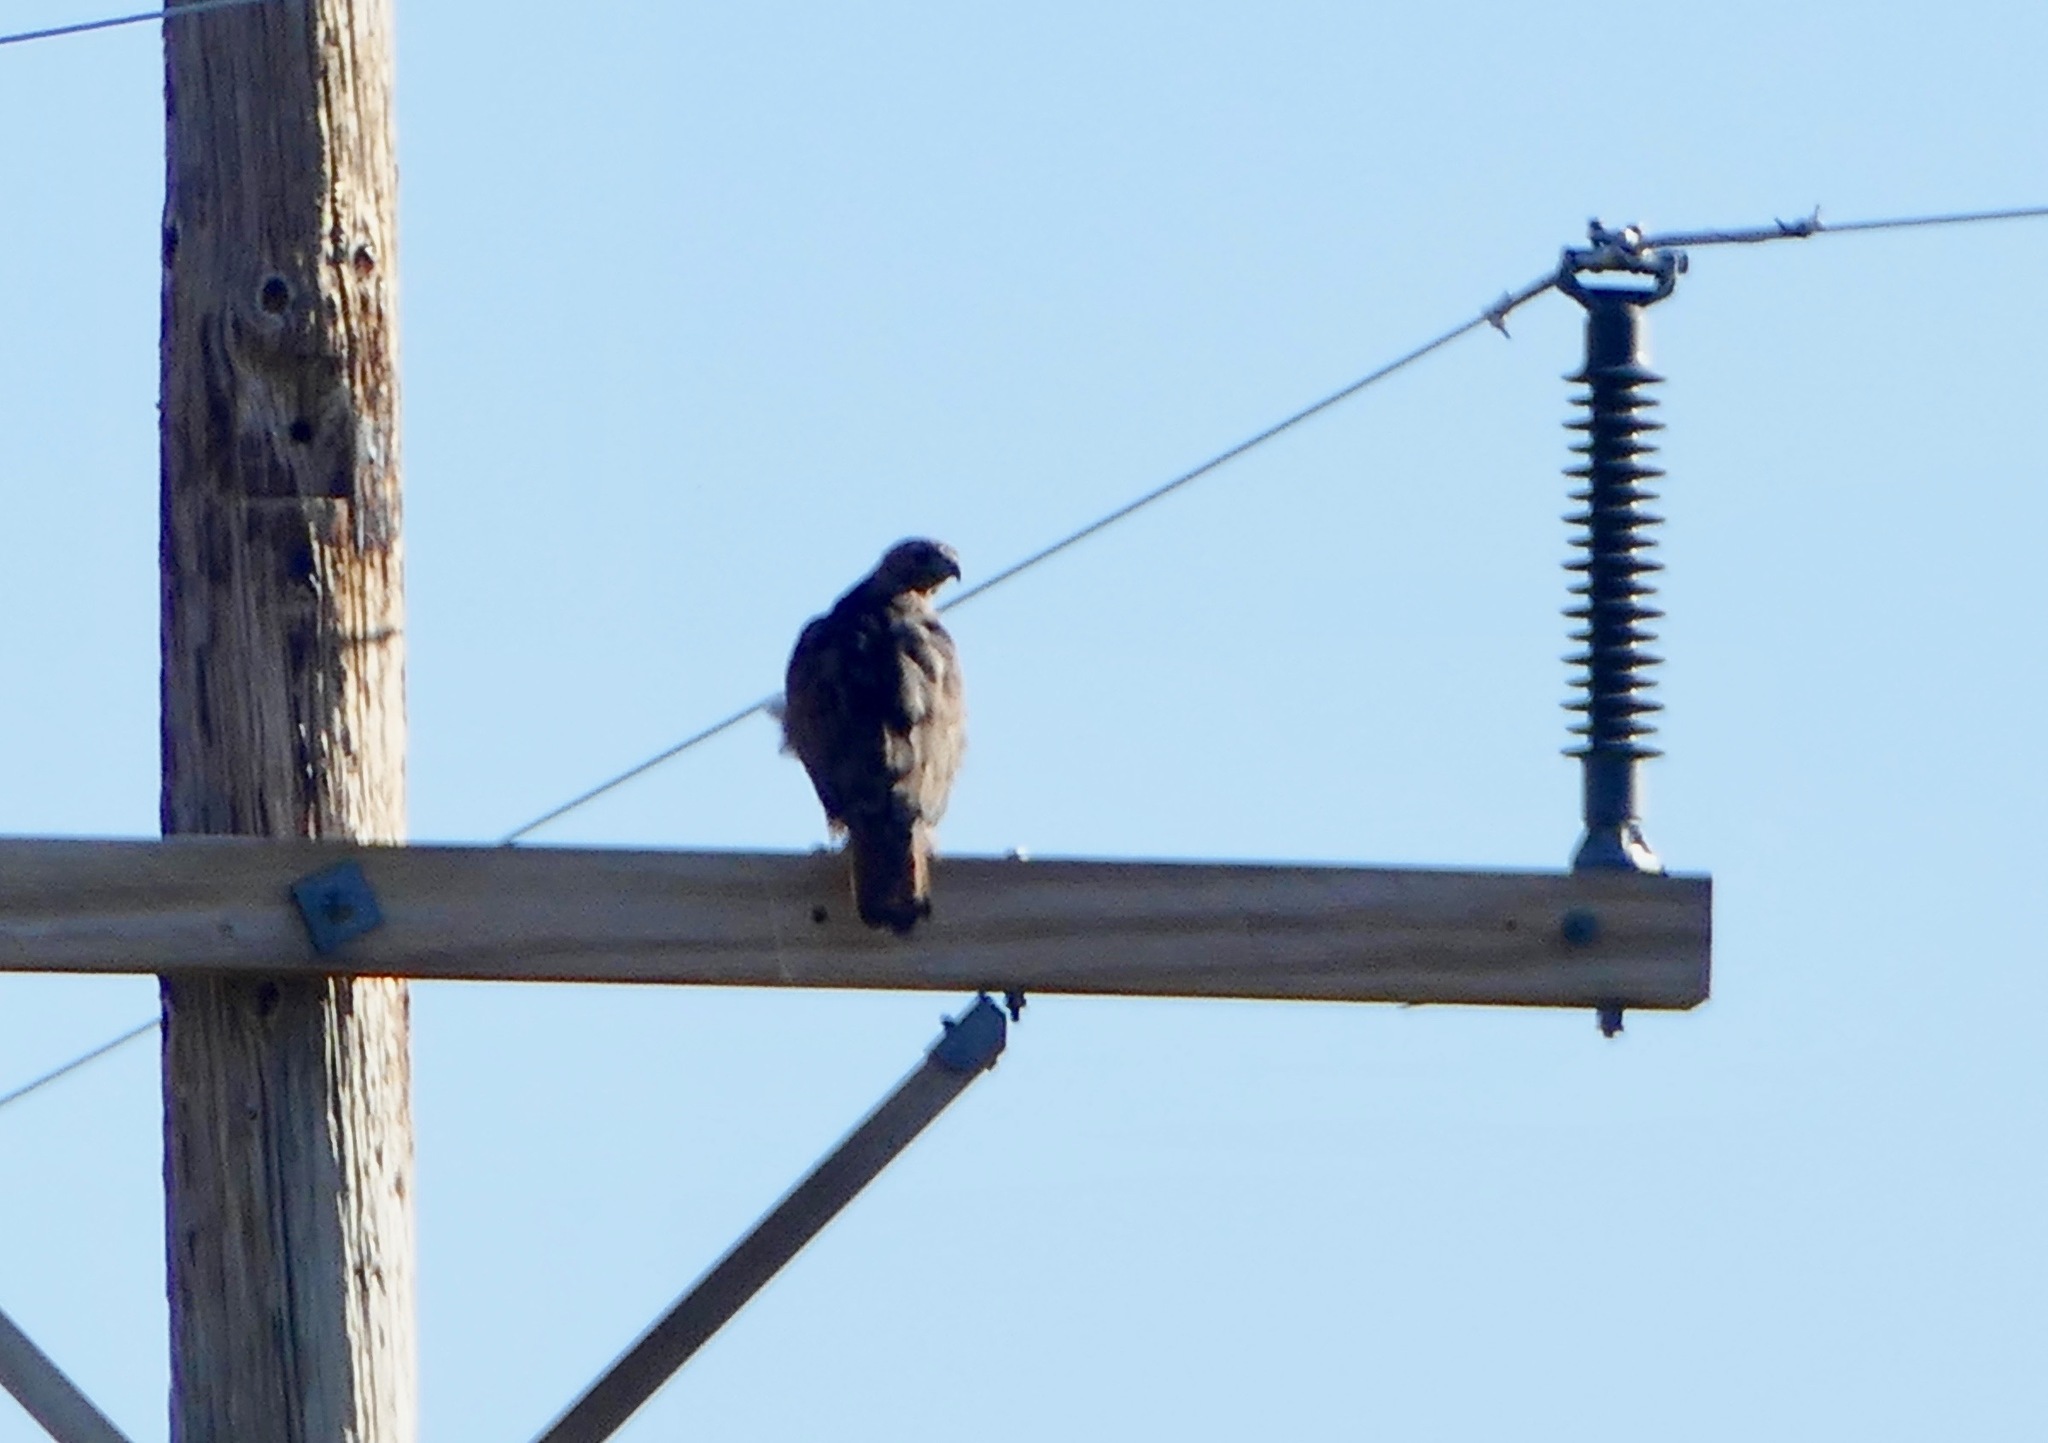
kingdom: Animalia
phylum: Chordata
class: Aves
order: Accipitriformes
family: Accipitridae
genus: Buteo
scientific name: Buteo jamaicensis
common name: Red-tailed hawk
